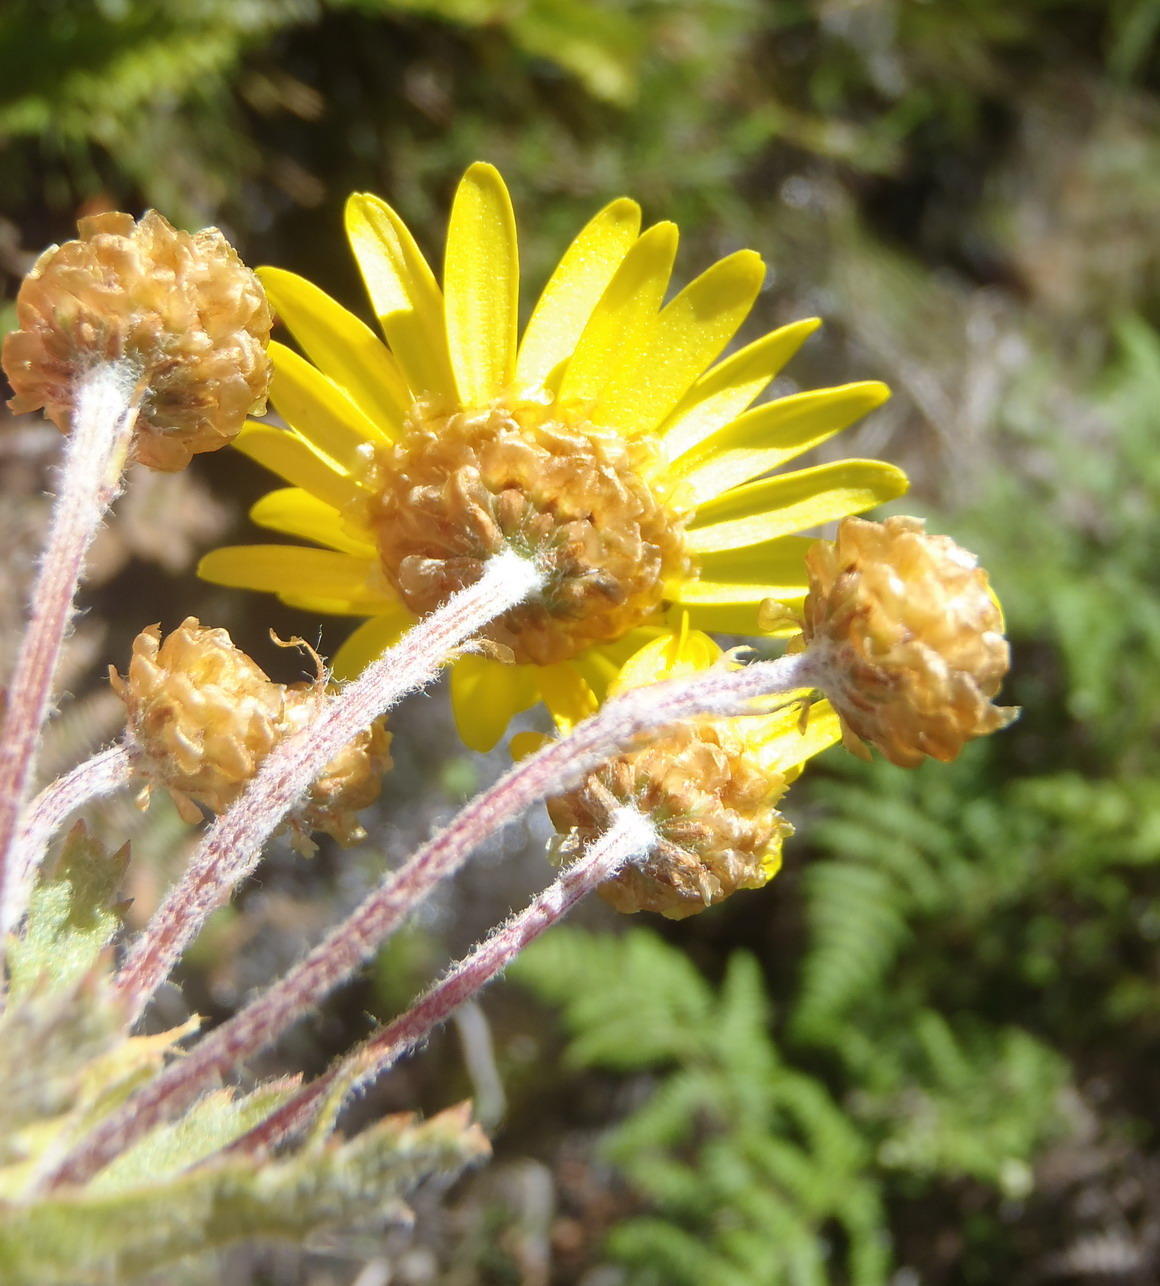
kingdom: Plantae
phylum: Tracheophyta
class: Magnoliopsida
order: Asterales
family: Asteraceae
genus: Ursinia
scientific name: Ursinia serrata
